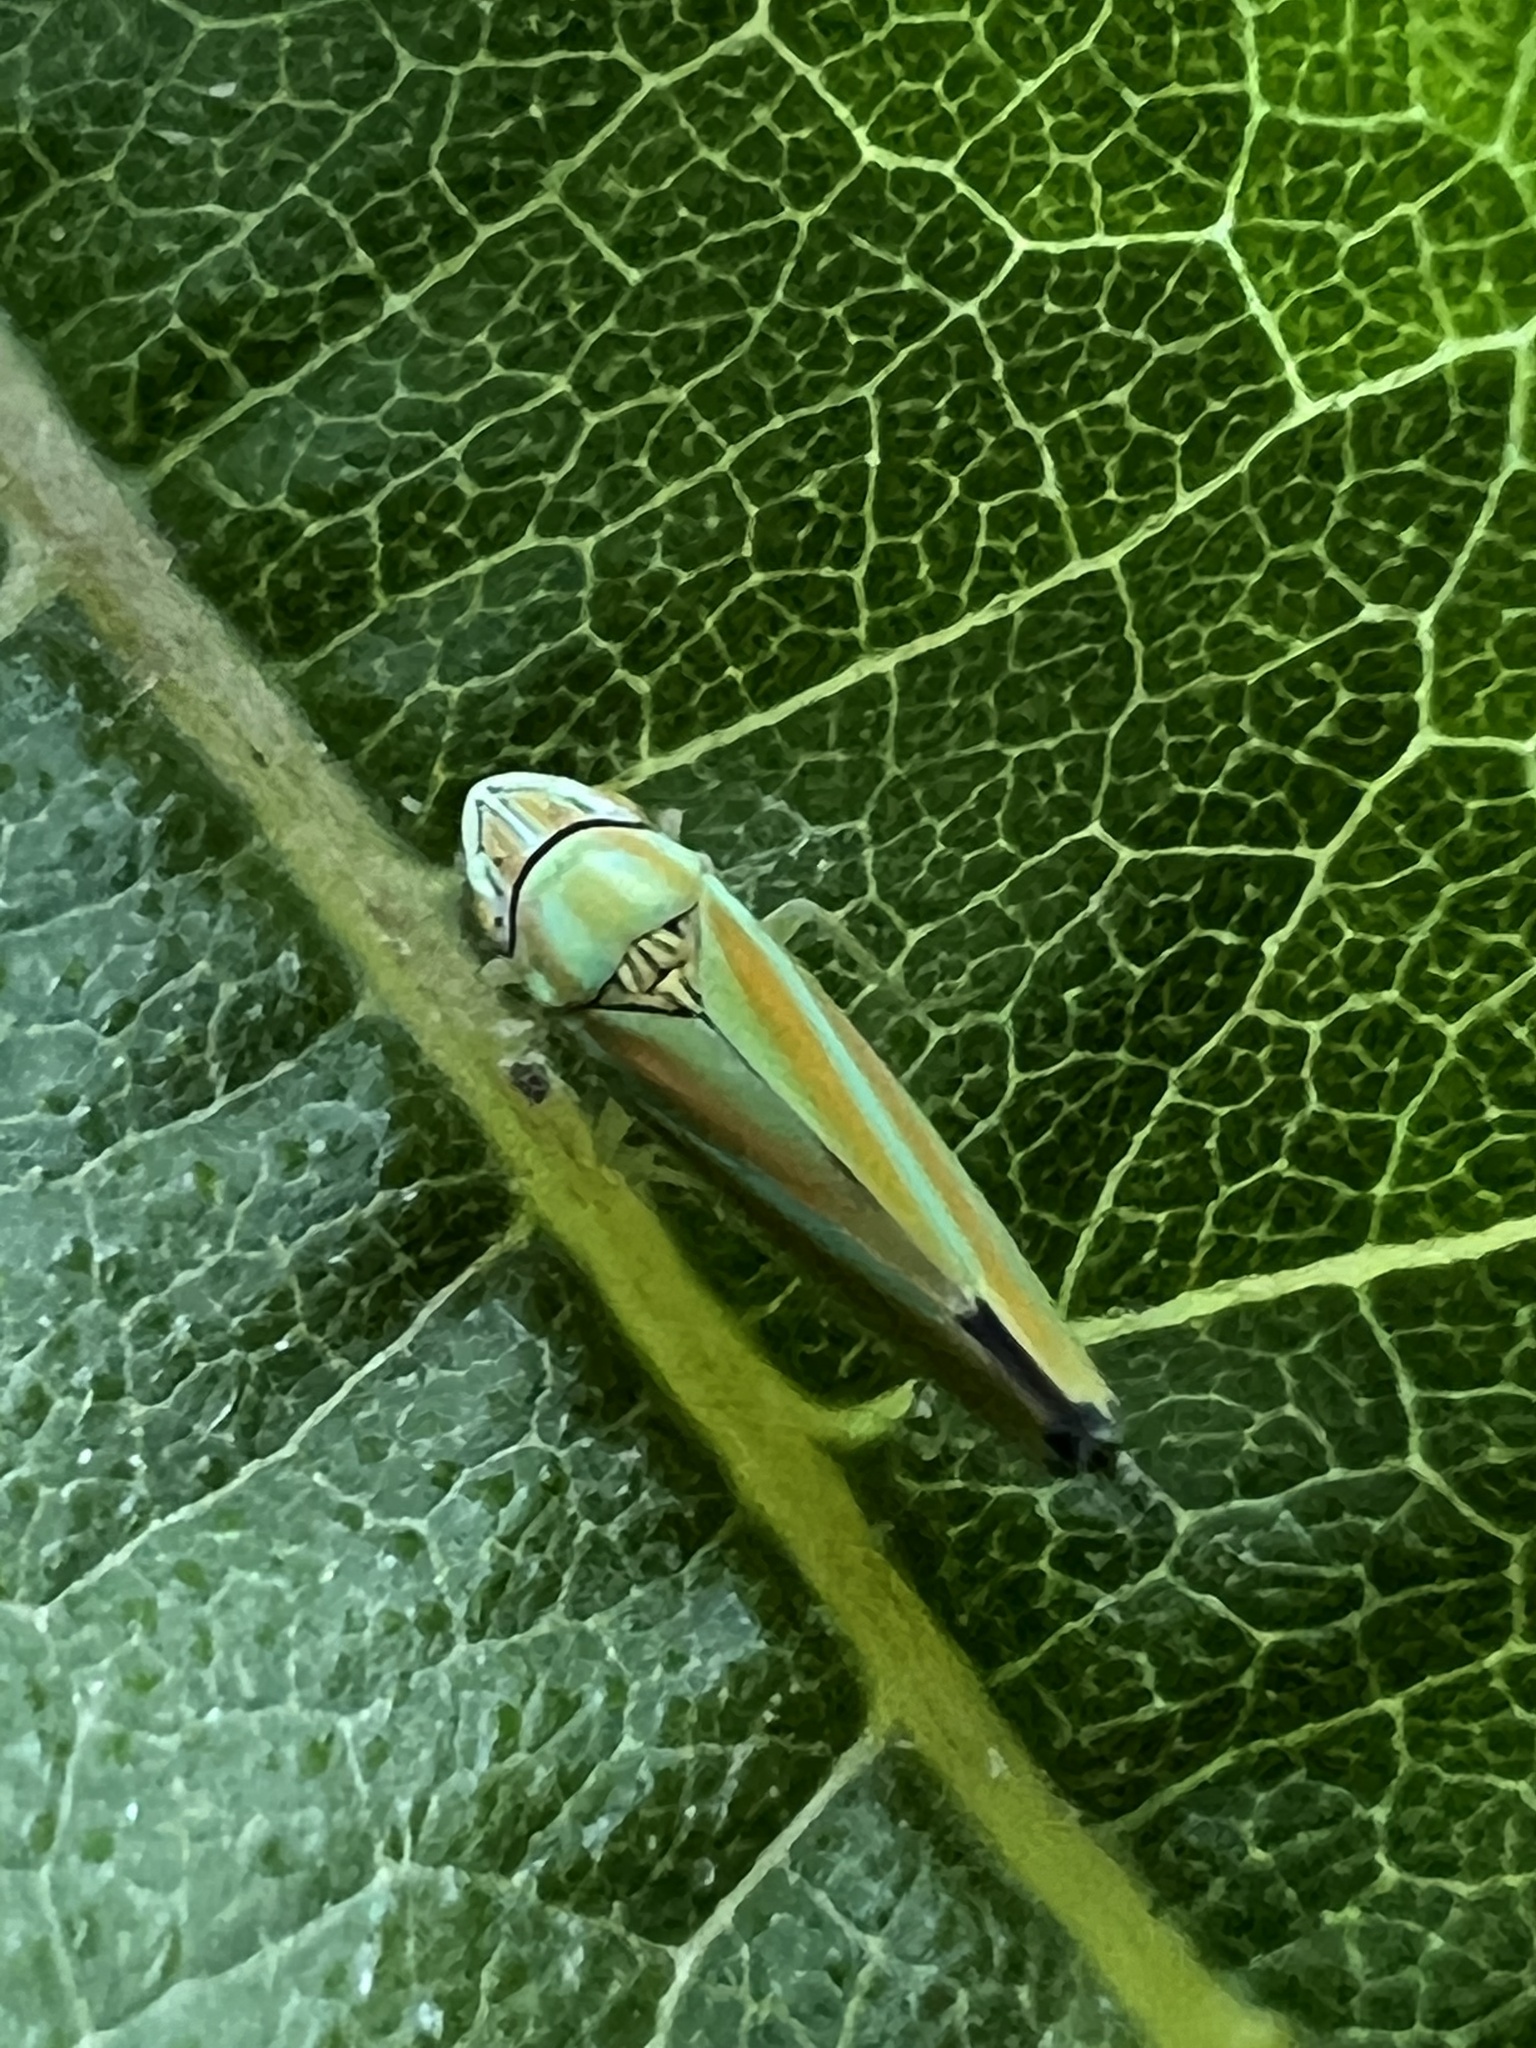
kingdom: Animalia
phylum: Arthropoda
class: Insecta
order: Hemiptera
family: Cicadellidae
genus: Graphocephala
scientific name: Graphocephala versuta
